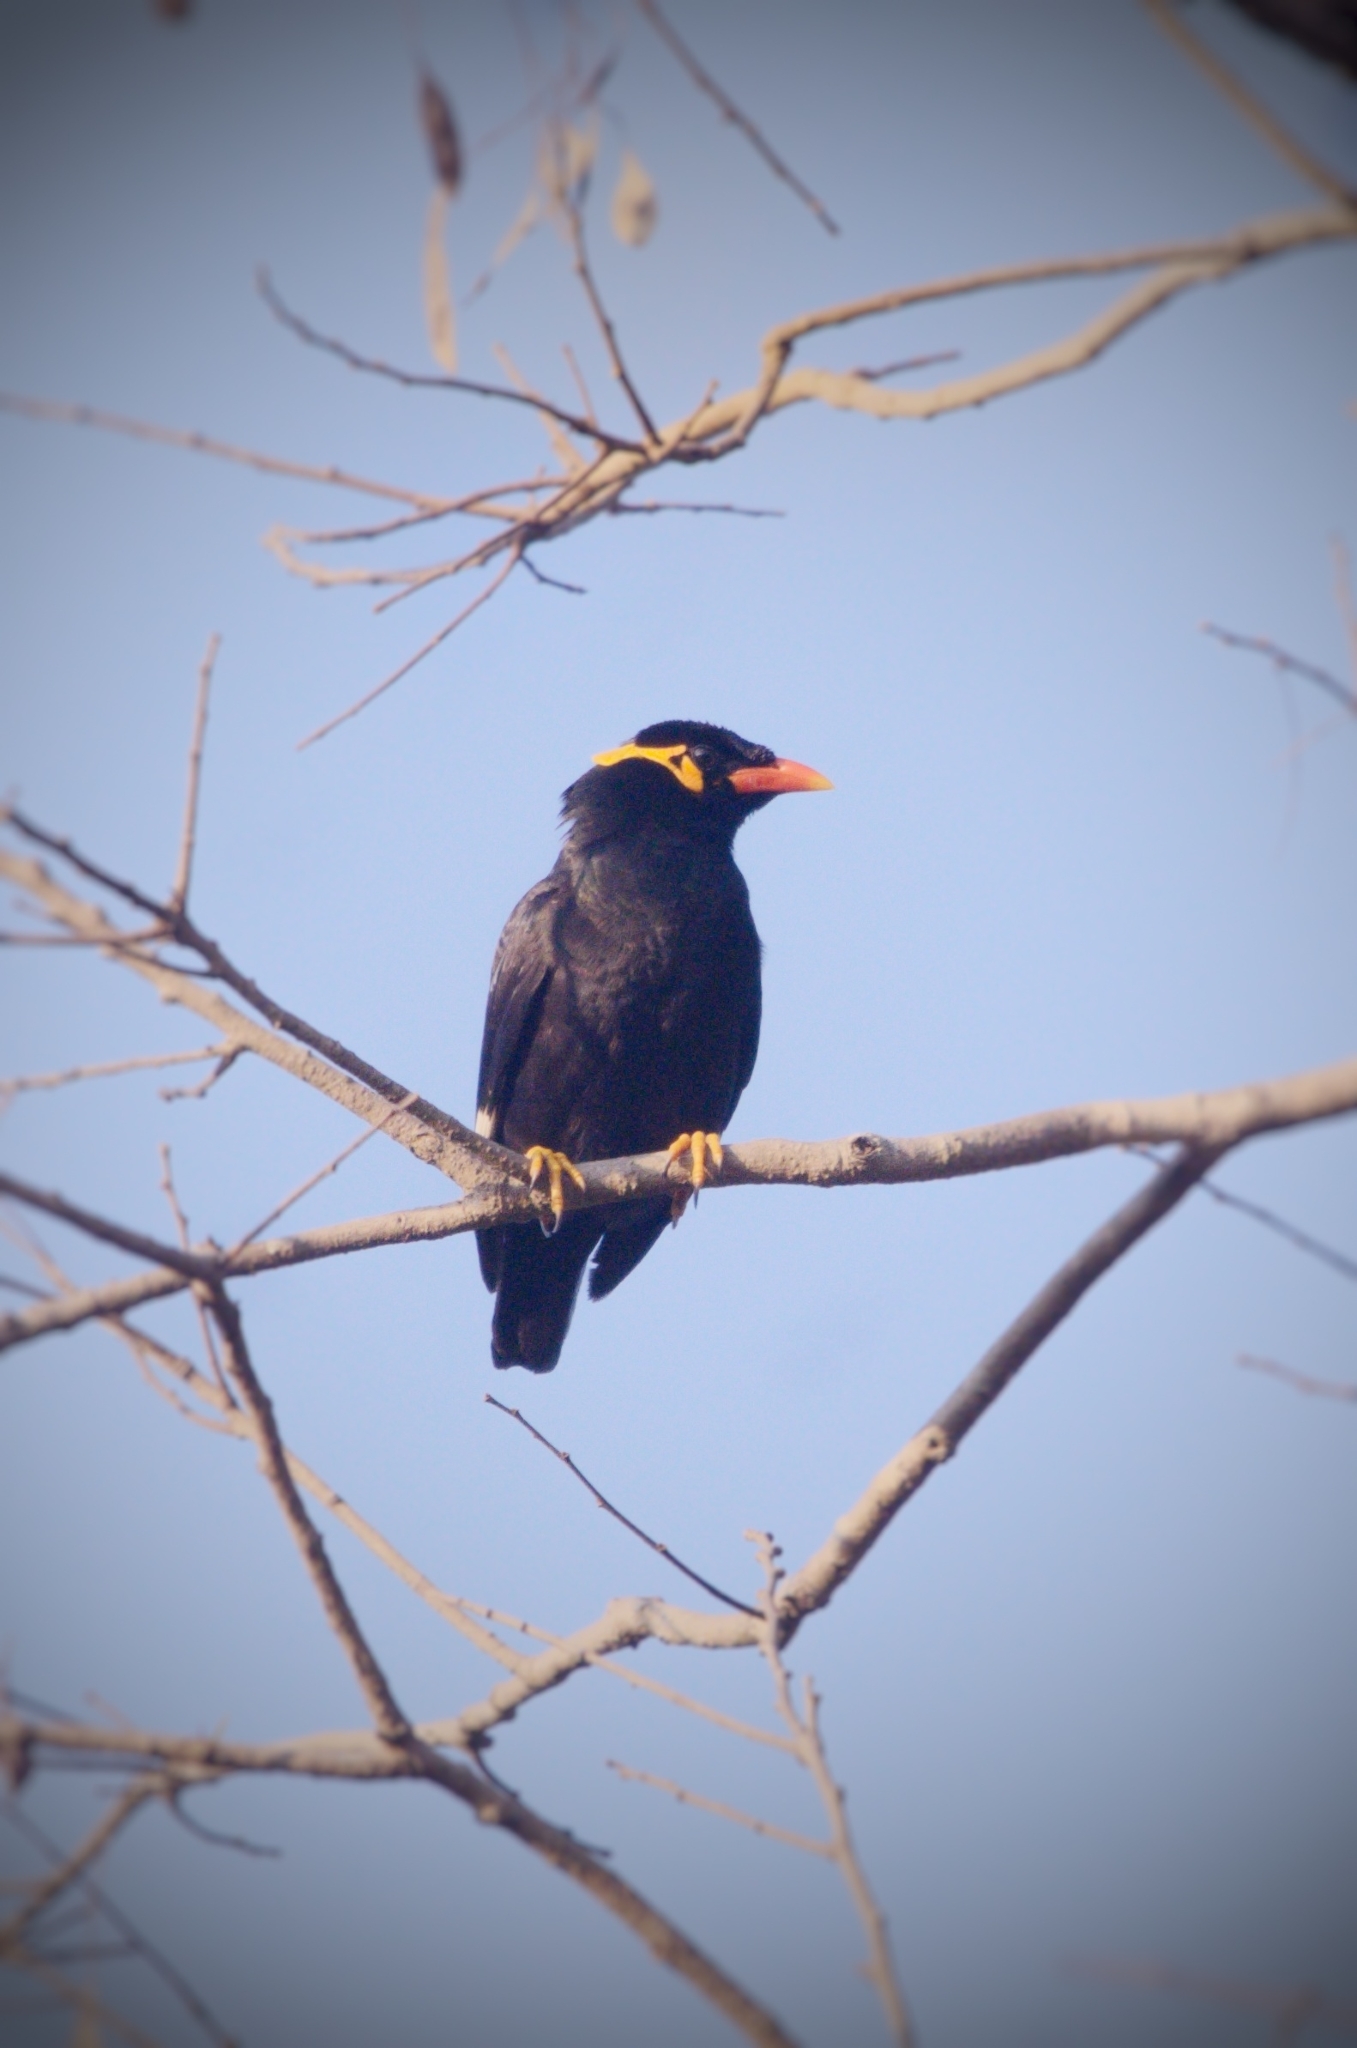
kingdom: Animalia
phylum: Chordata
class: Aves
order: Passeriformes
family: Sturnidae
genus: Gracula
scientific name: Gracula religiosa
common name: Common hill myna
